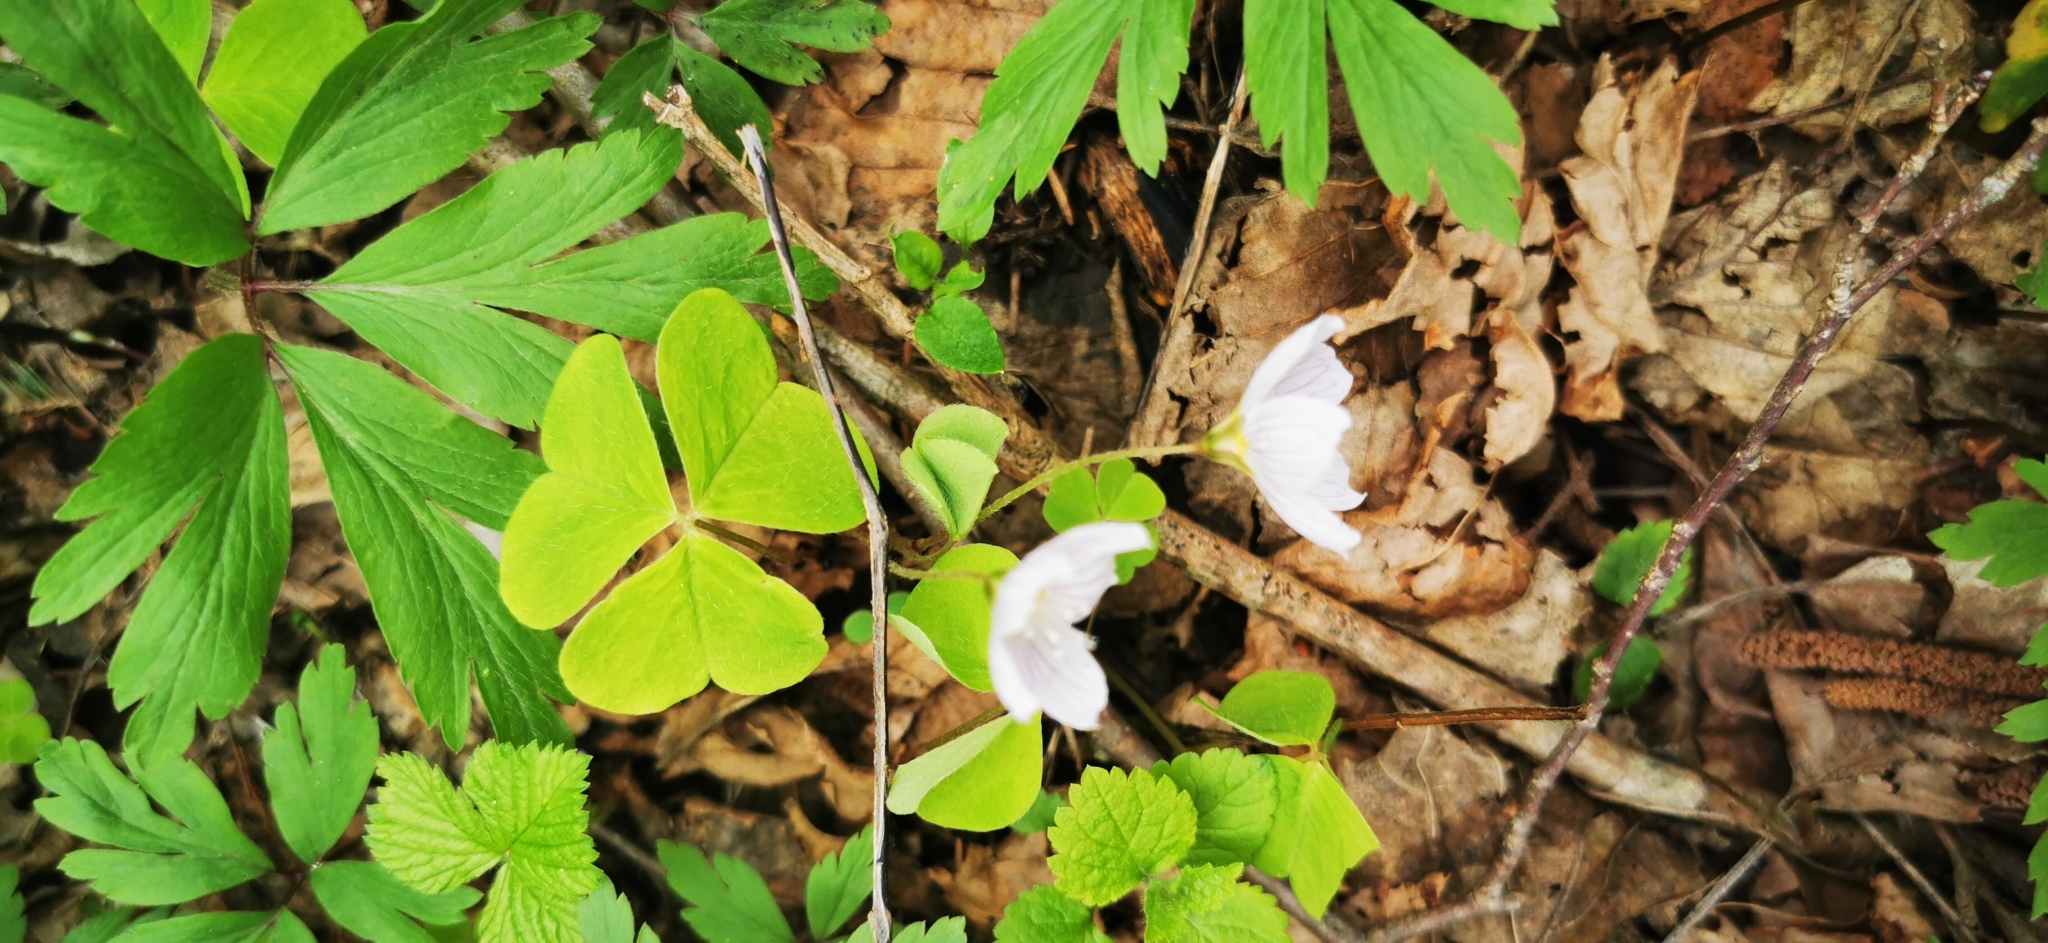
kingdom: Plantae
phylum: Tracheophyta
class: Magnoliopsida
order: Oxalidales
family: Oxalidaceae
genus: Oxalis
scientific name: Oxalis acetosella
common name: Wood-sorrel
